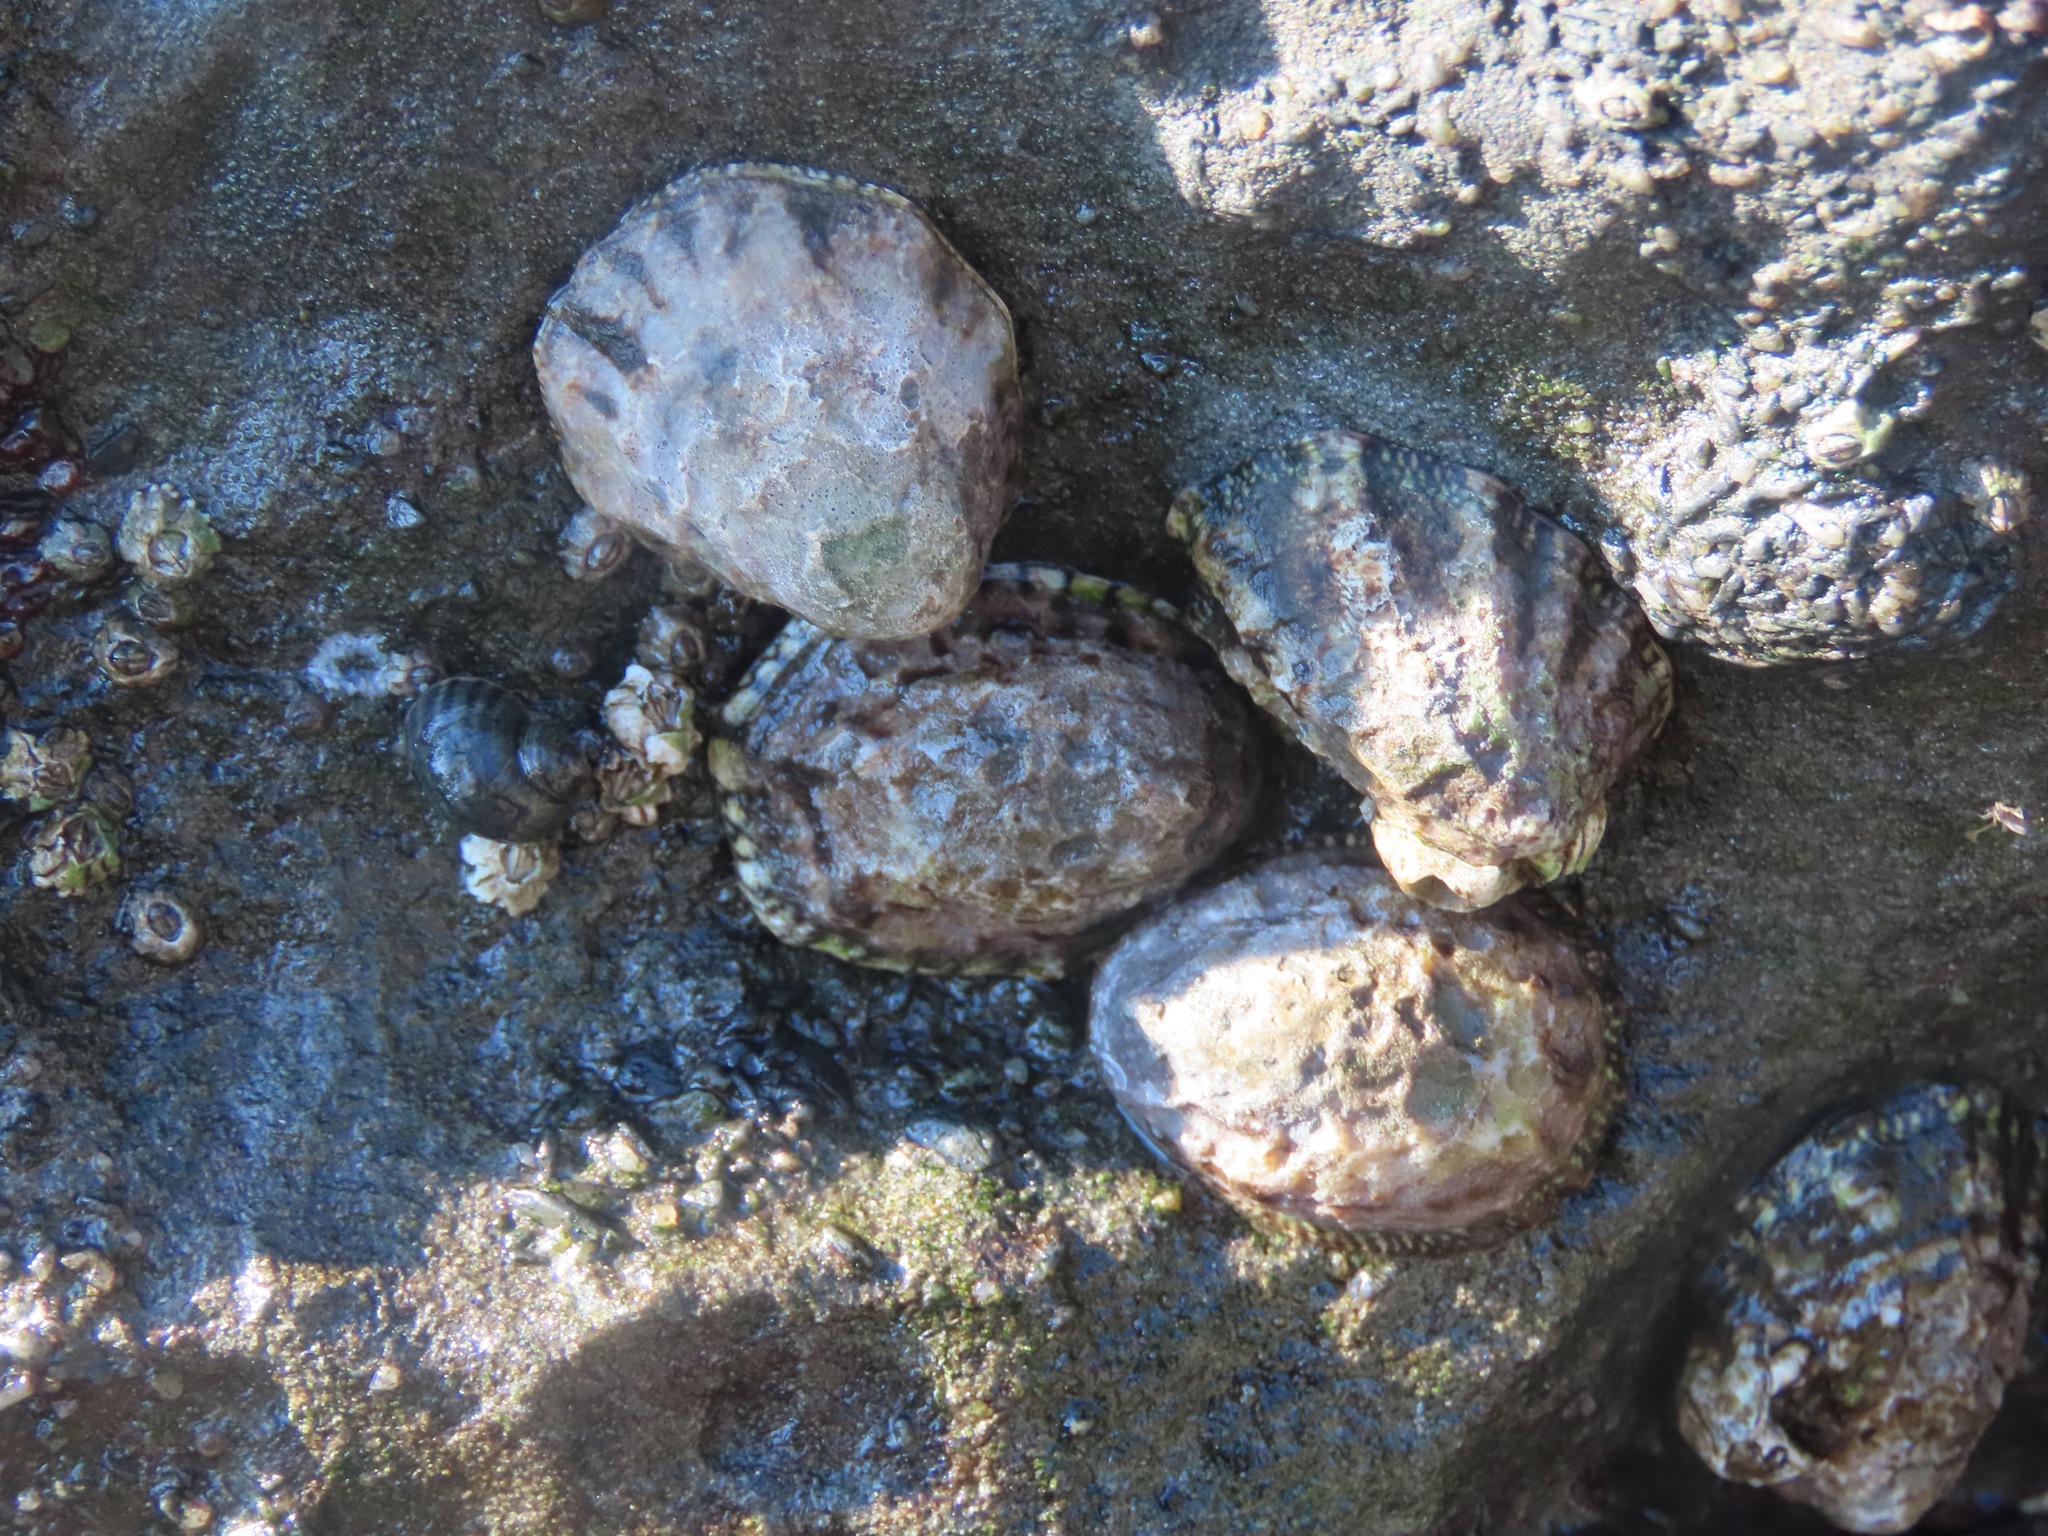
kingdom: Animalia
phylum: Mollusca
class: Gastropoda
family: Lottiidae
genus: Lottia
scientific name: Lottia digitalis
